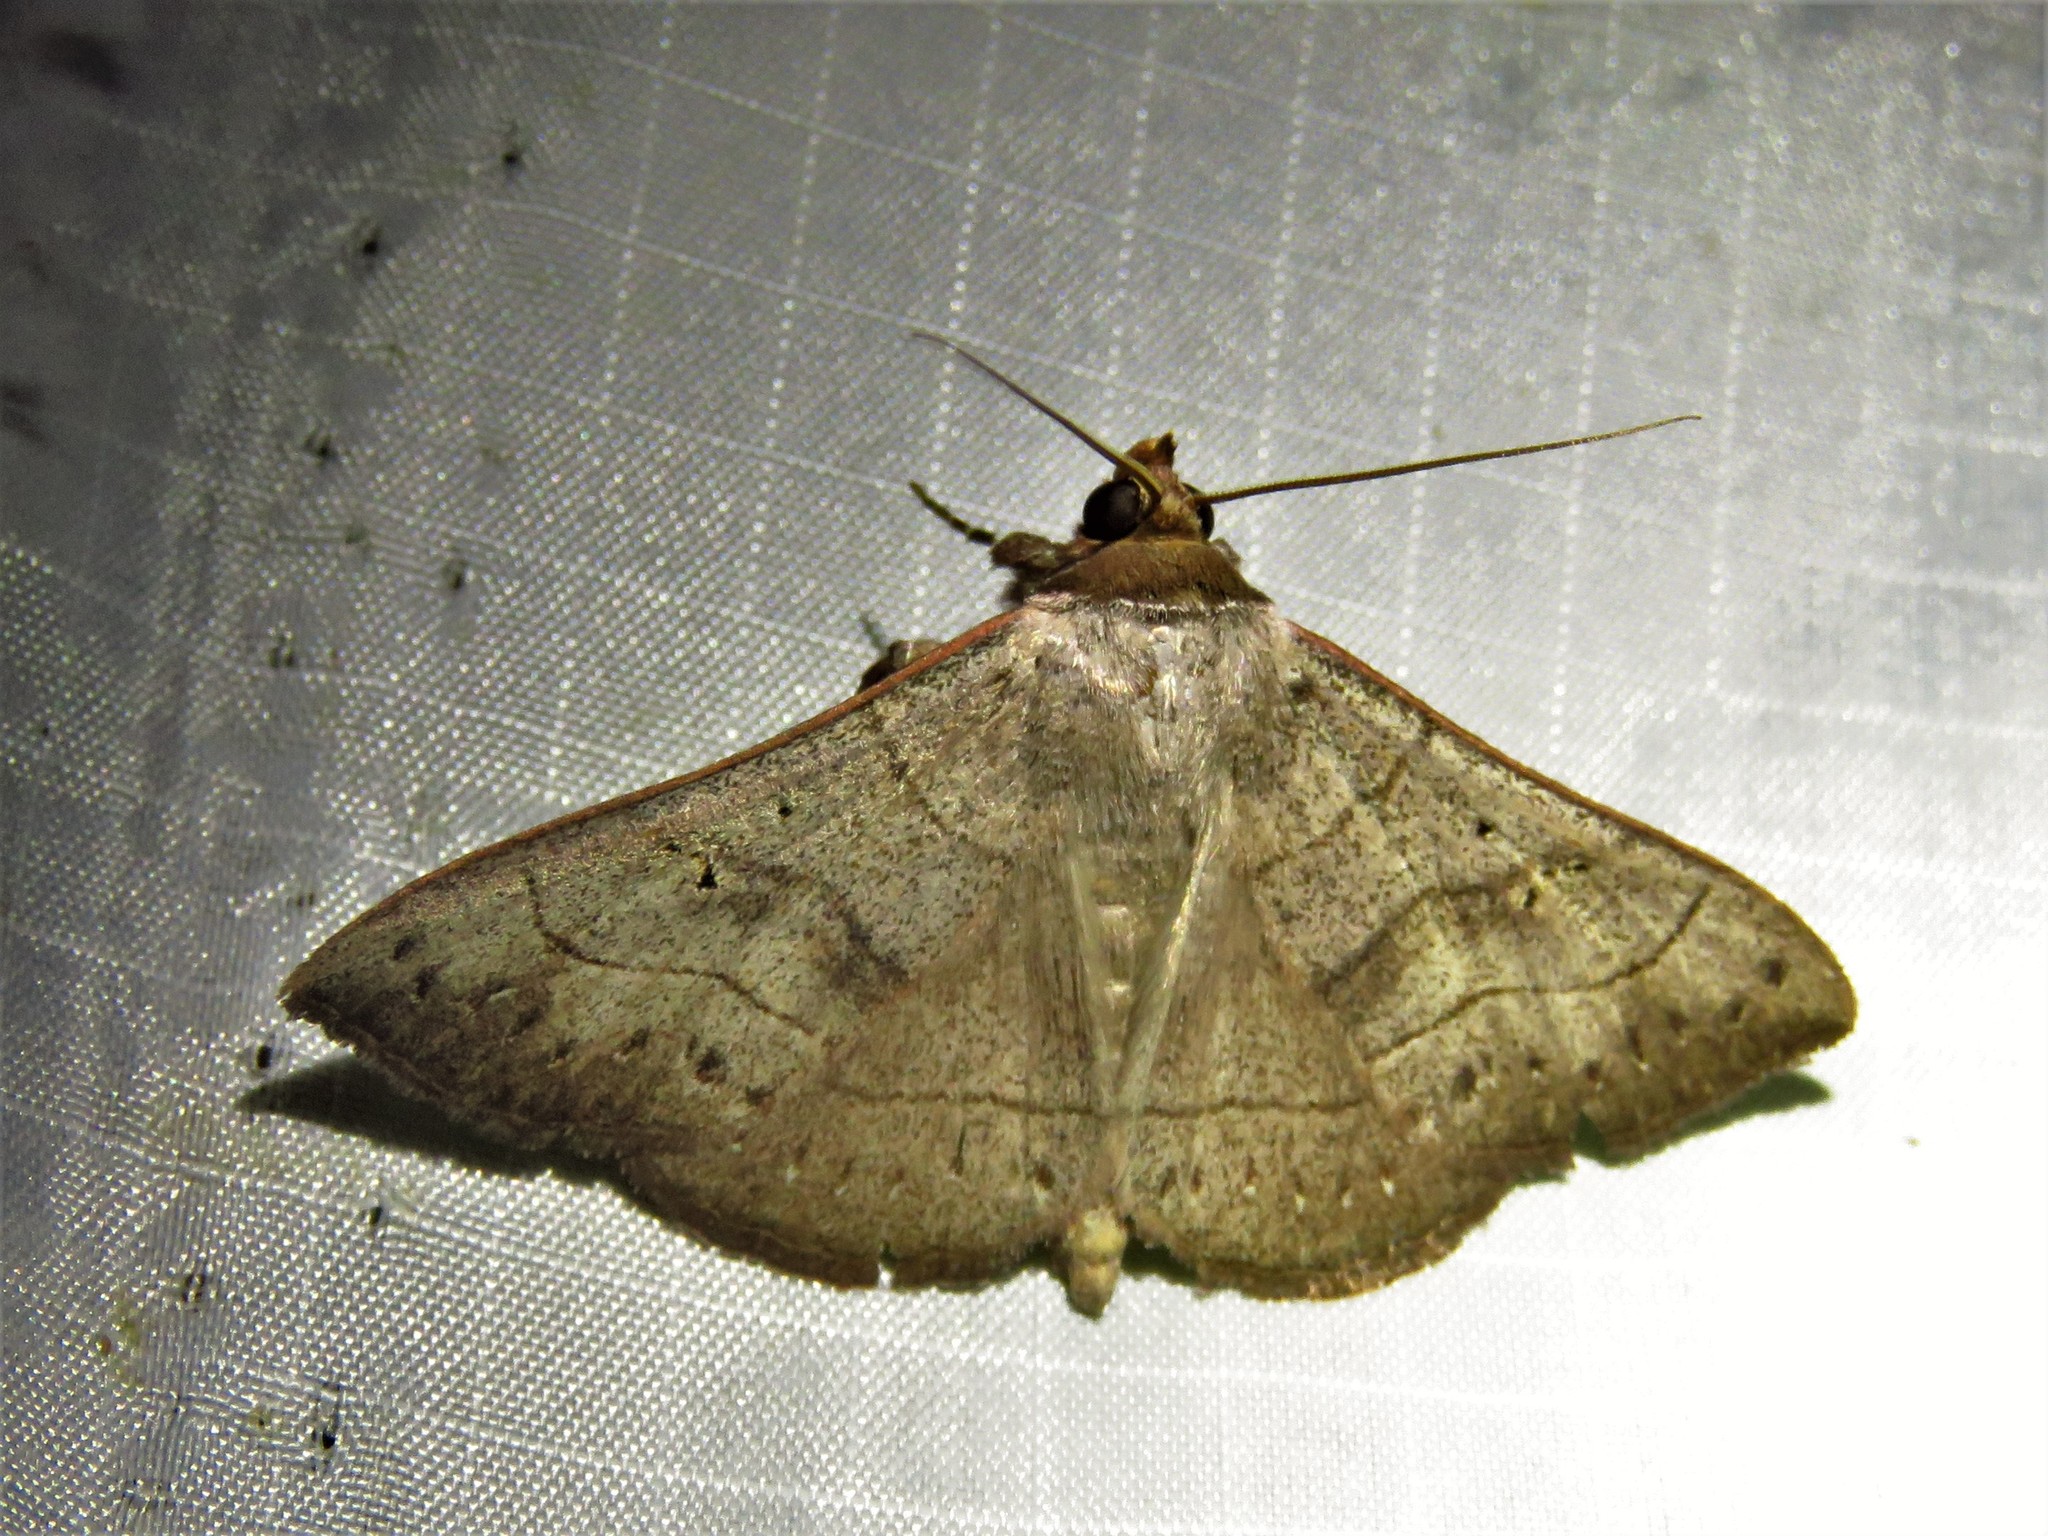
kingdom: Animalia
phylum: Arthropoda
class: Insecta
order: Lepidoptera
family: Erebidae
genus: Panopoda
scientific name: Panopoda carneicosta
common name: Brown panopoda moth
